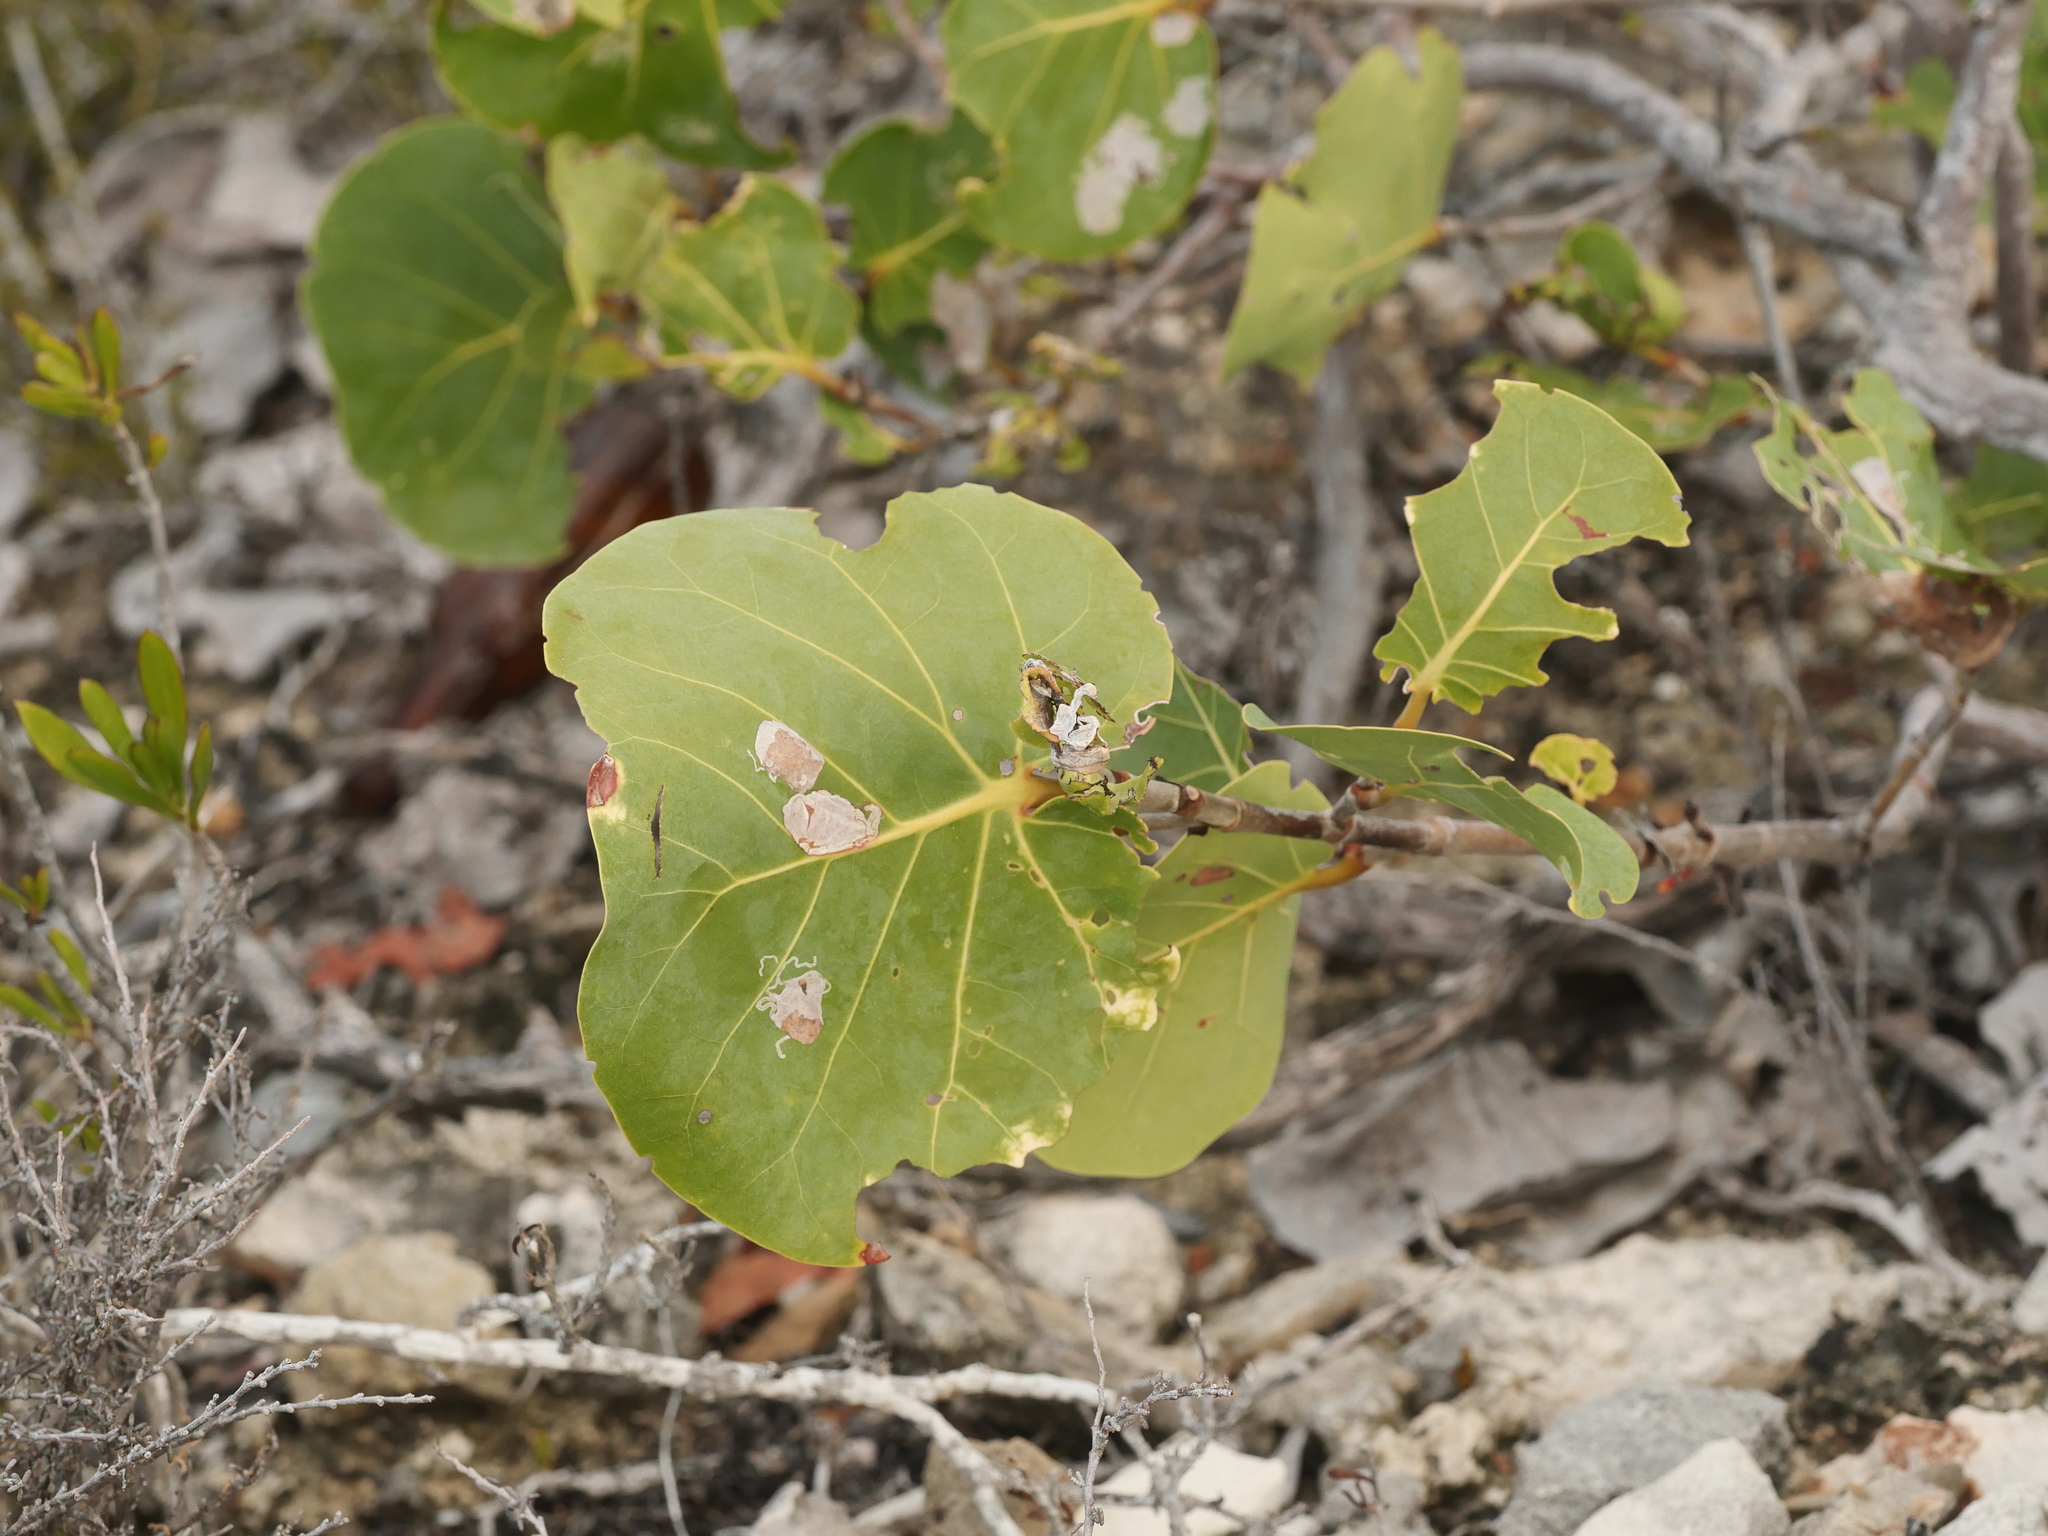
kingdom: Plantae
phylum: Tracheophyta
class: Magnoliopsida
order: Caryophyllales
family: Polygonaceae
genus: Coccoloba
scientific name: Coccoloba uvifera
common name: Seagrape
